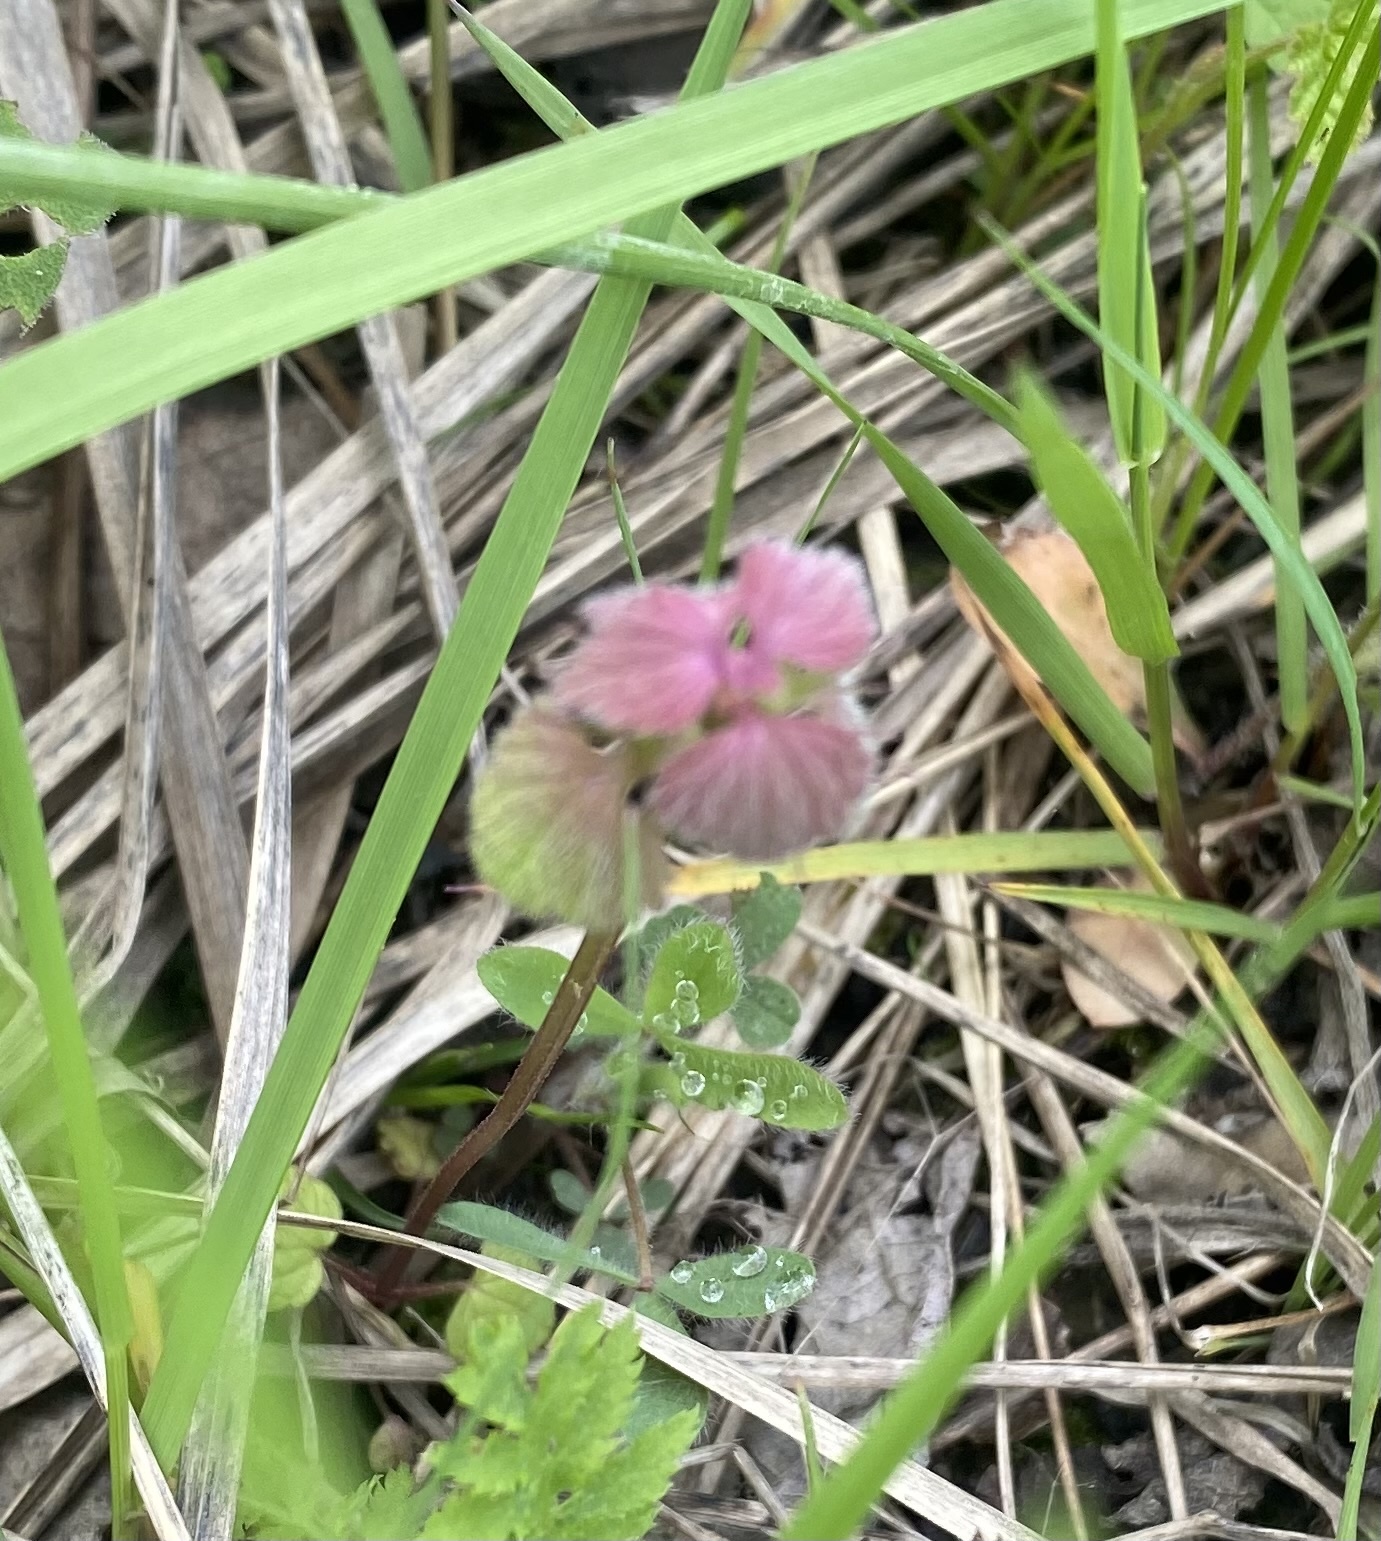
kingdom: Plantae
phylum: Tracheophyta
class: Magnoliopsida
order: Lamiales
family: Lamiaceae
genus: Lamium
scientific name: Lamium purpureum
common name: Red dead-nettle
